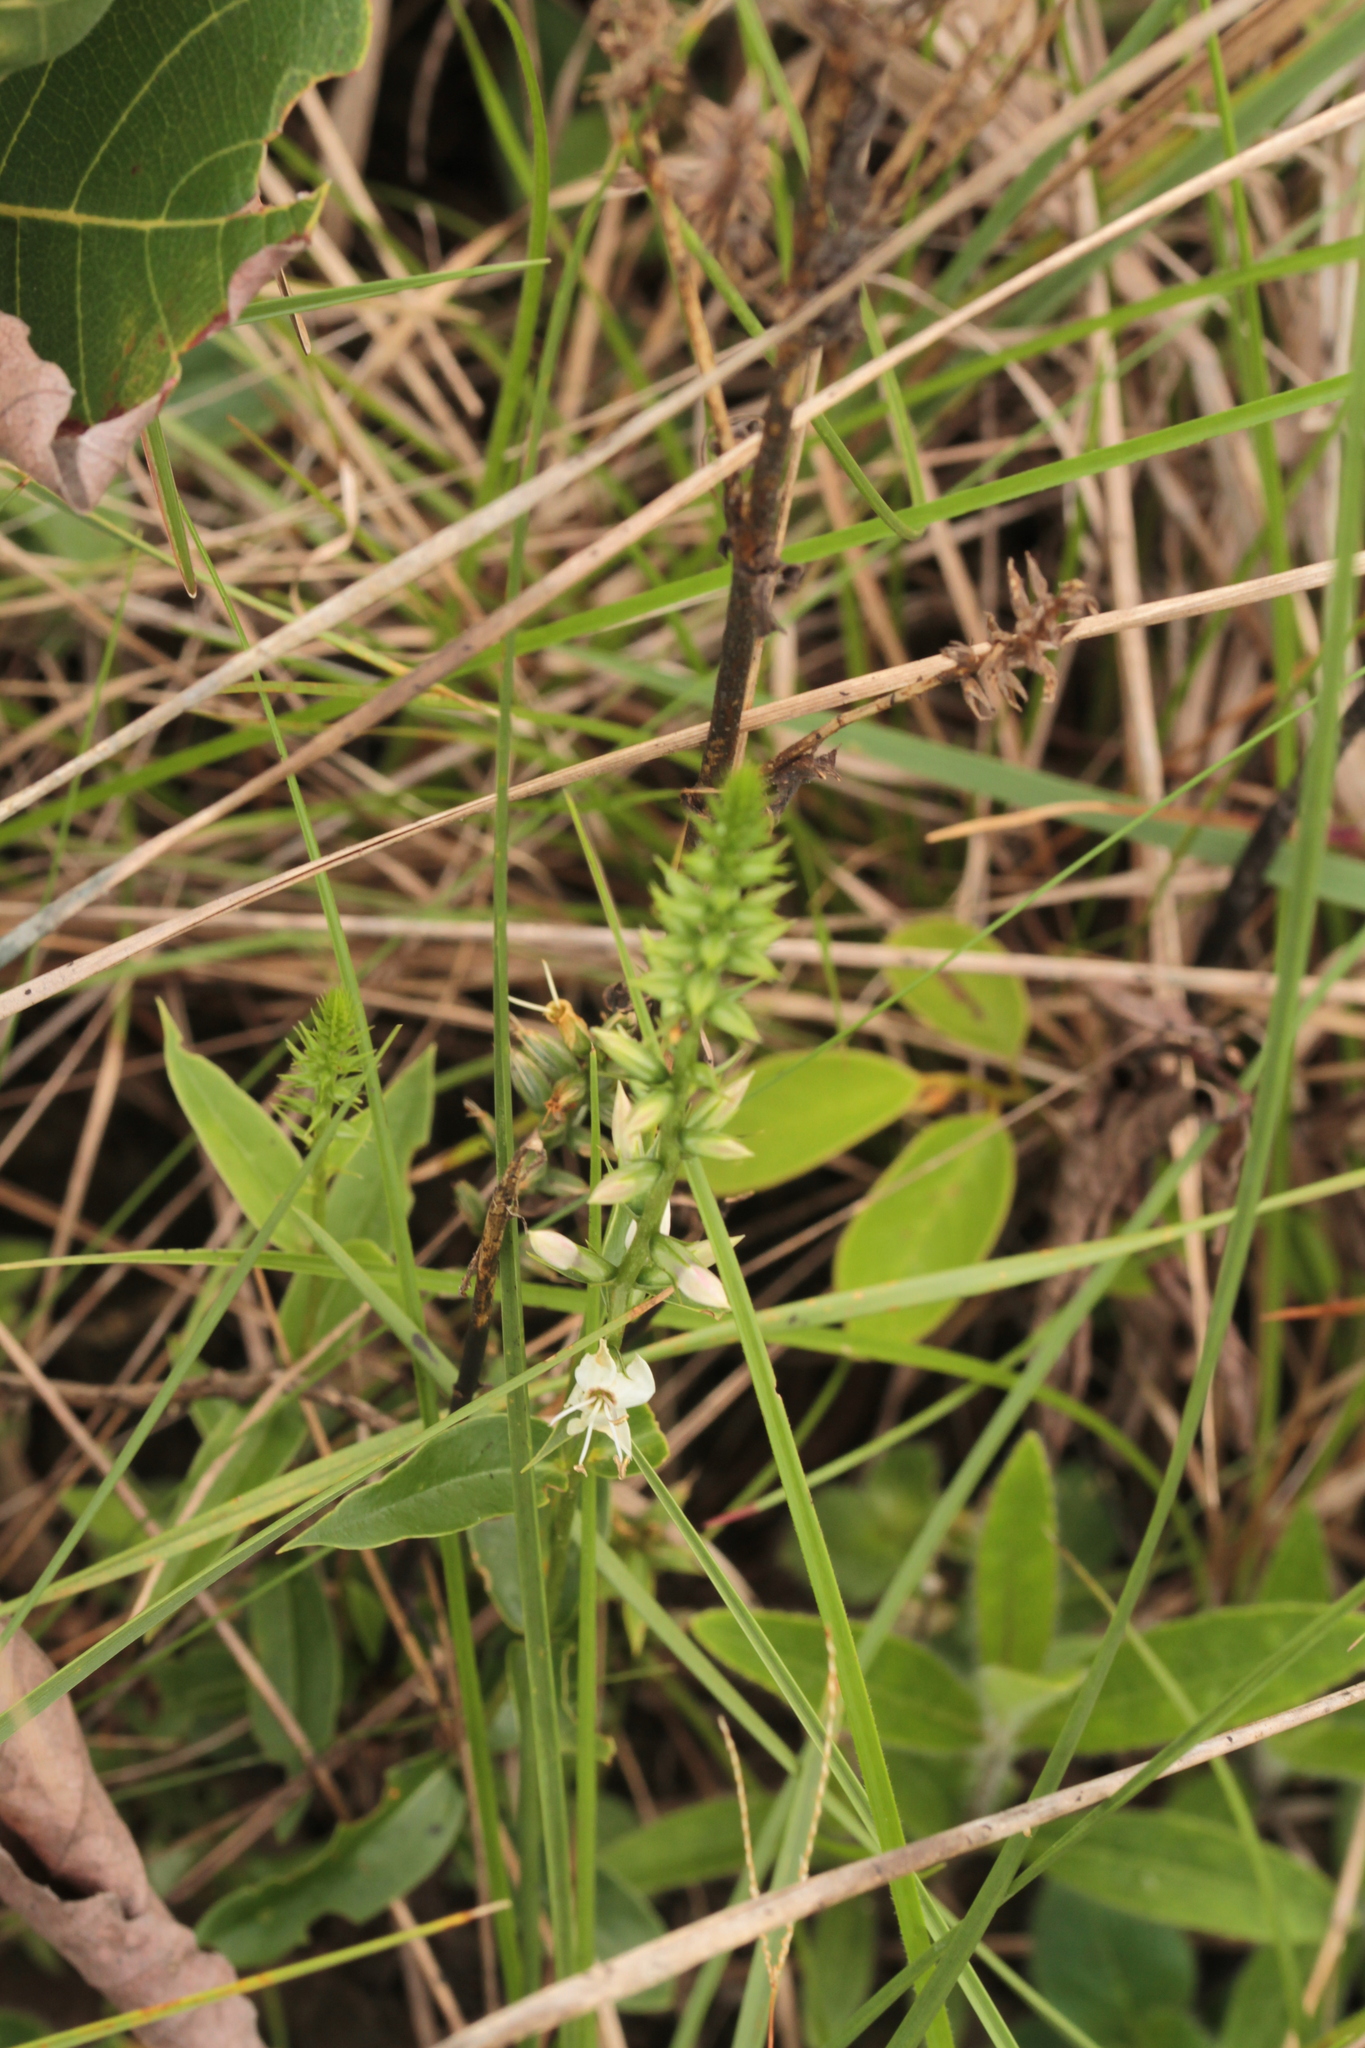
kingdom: Plantae
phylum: Tracheophyta
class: Magnoliopsida
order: Gentianales
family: Gentianaceae
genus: Coutoubea
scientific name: Coutoubea spicata
